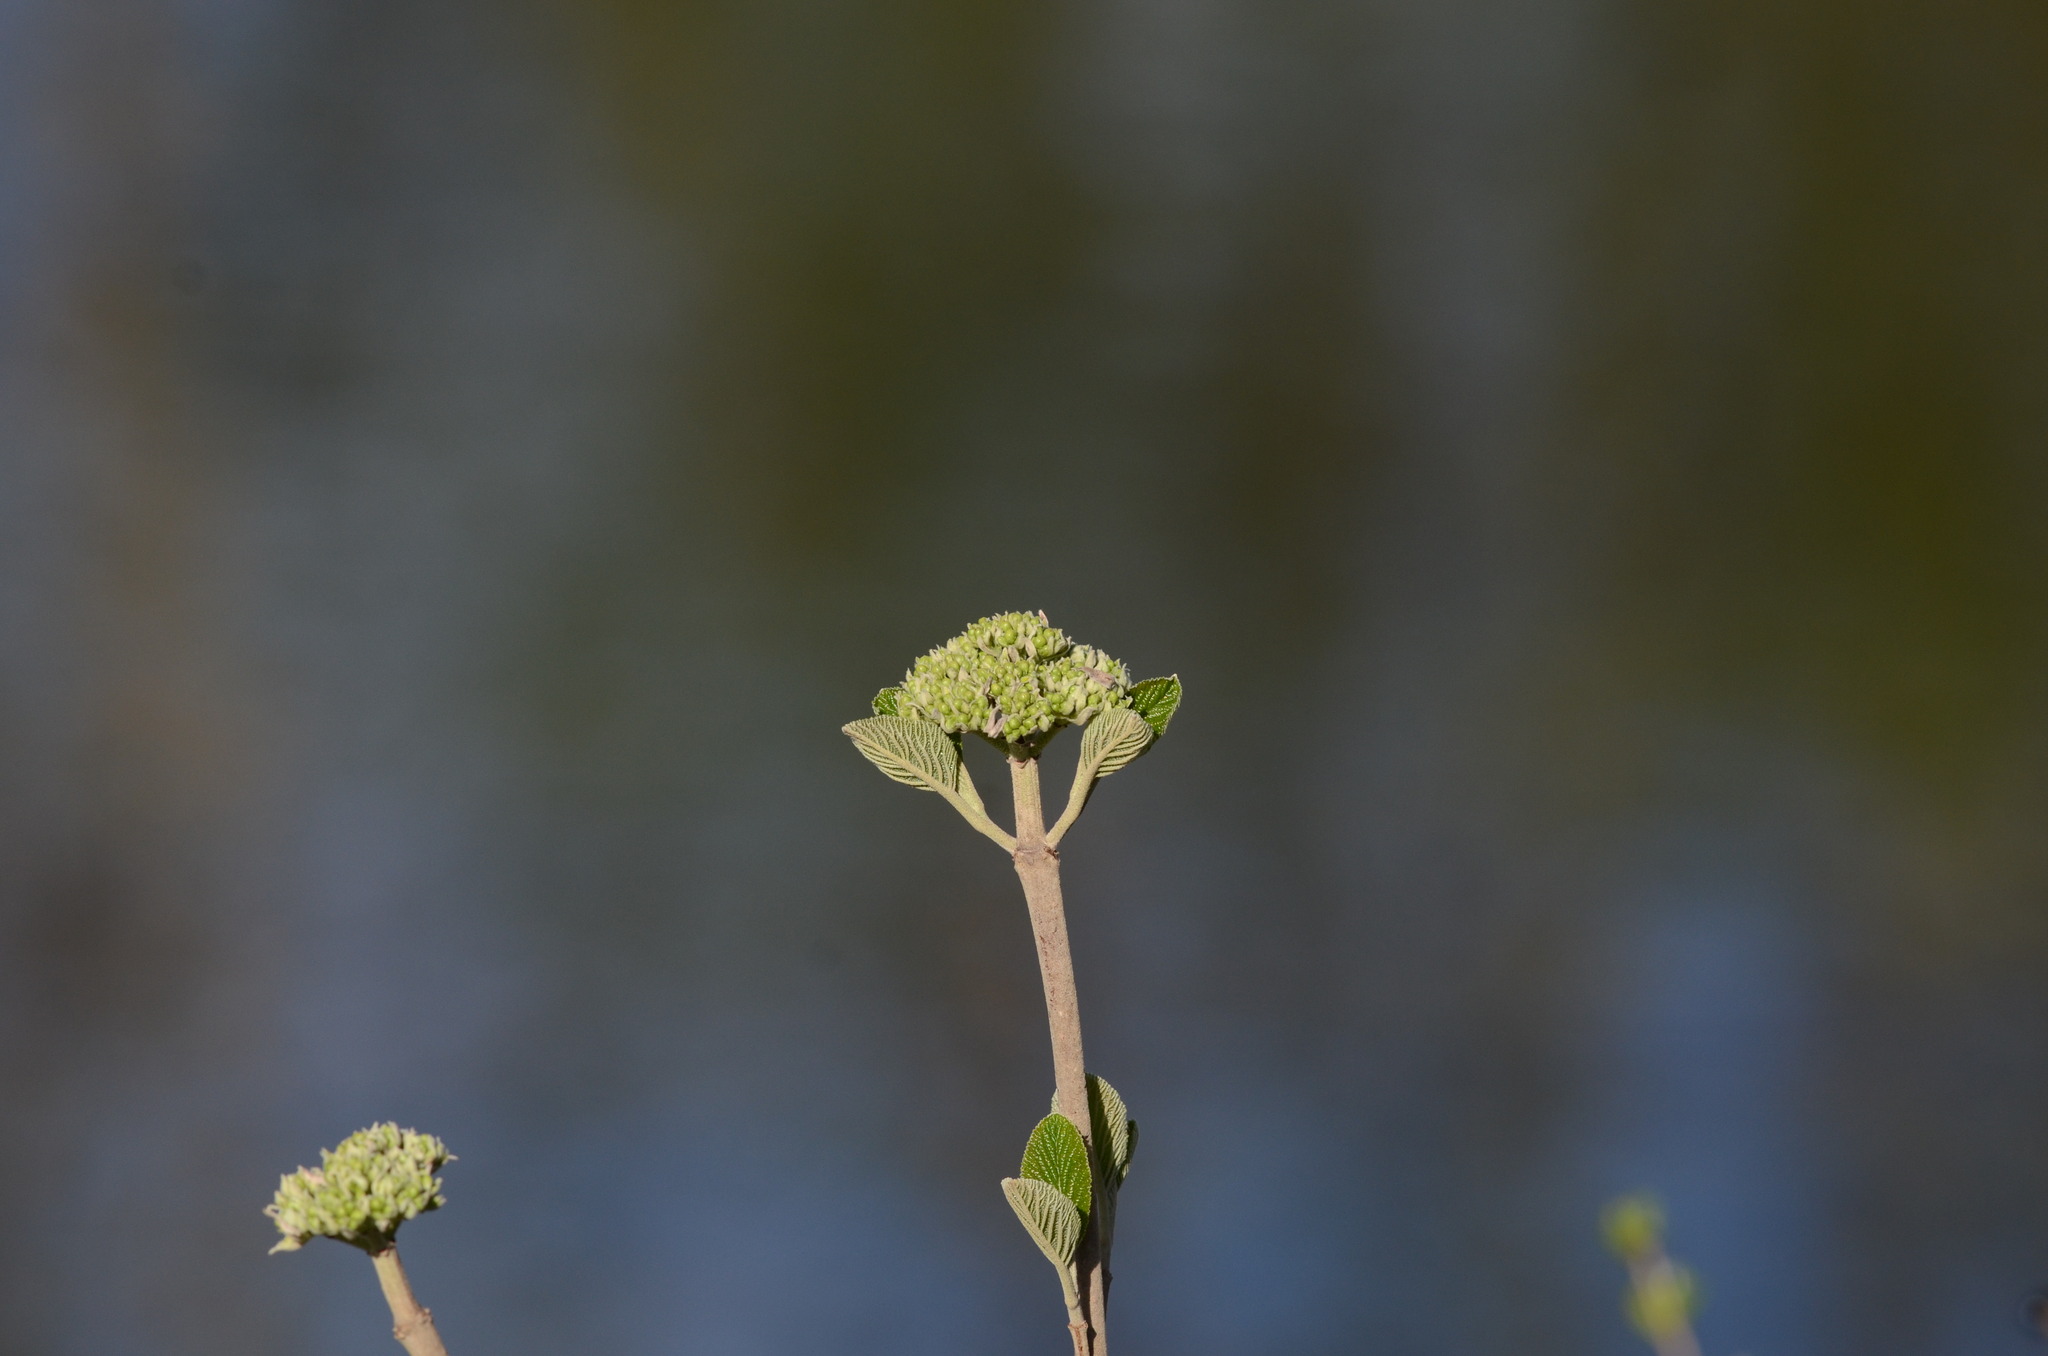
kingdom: Plantae
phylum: Tracheophyta
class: Magnoliopsida
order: Dipsacales
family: Viburnaceae
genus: Viburnum
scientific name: Viburnum lantana
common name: Wayfaring tree
